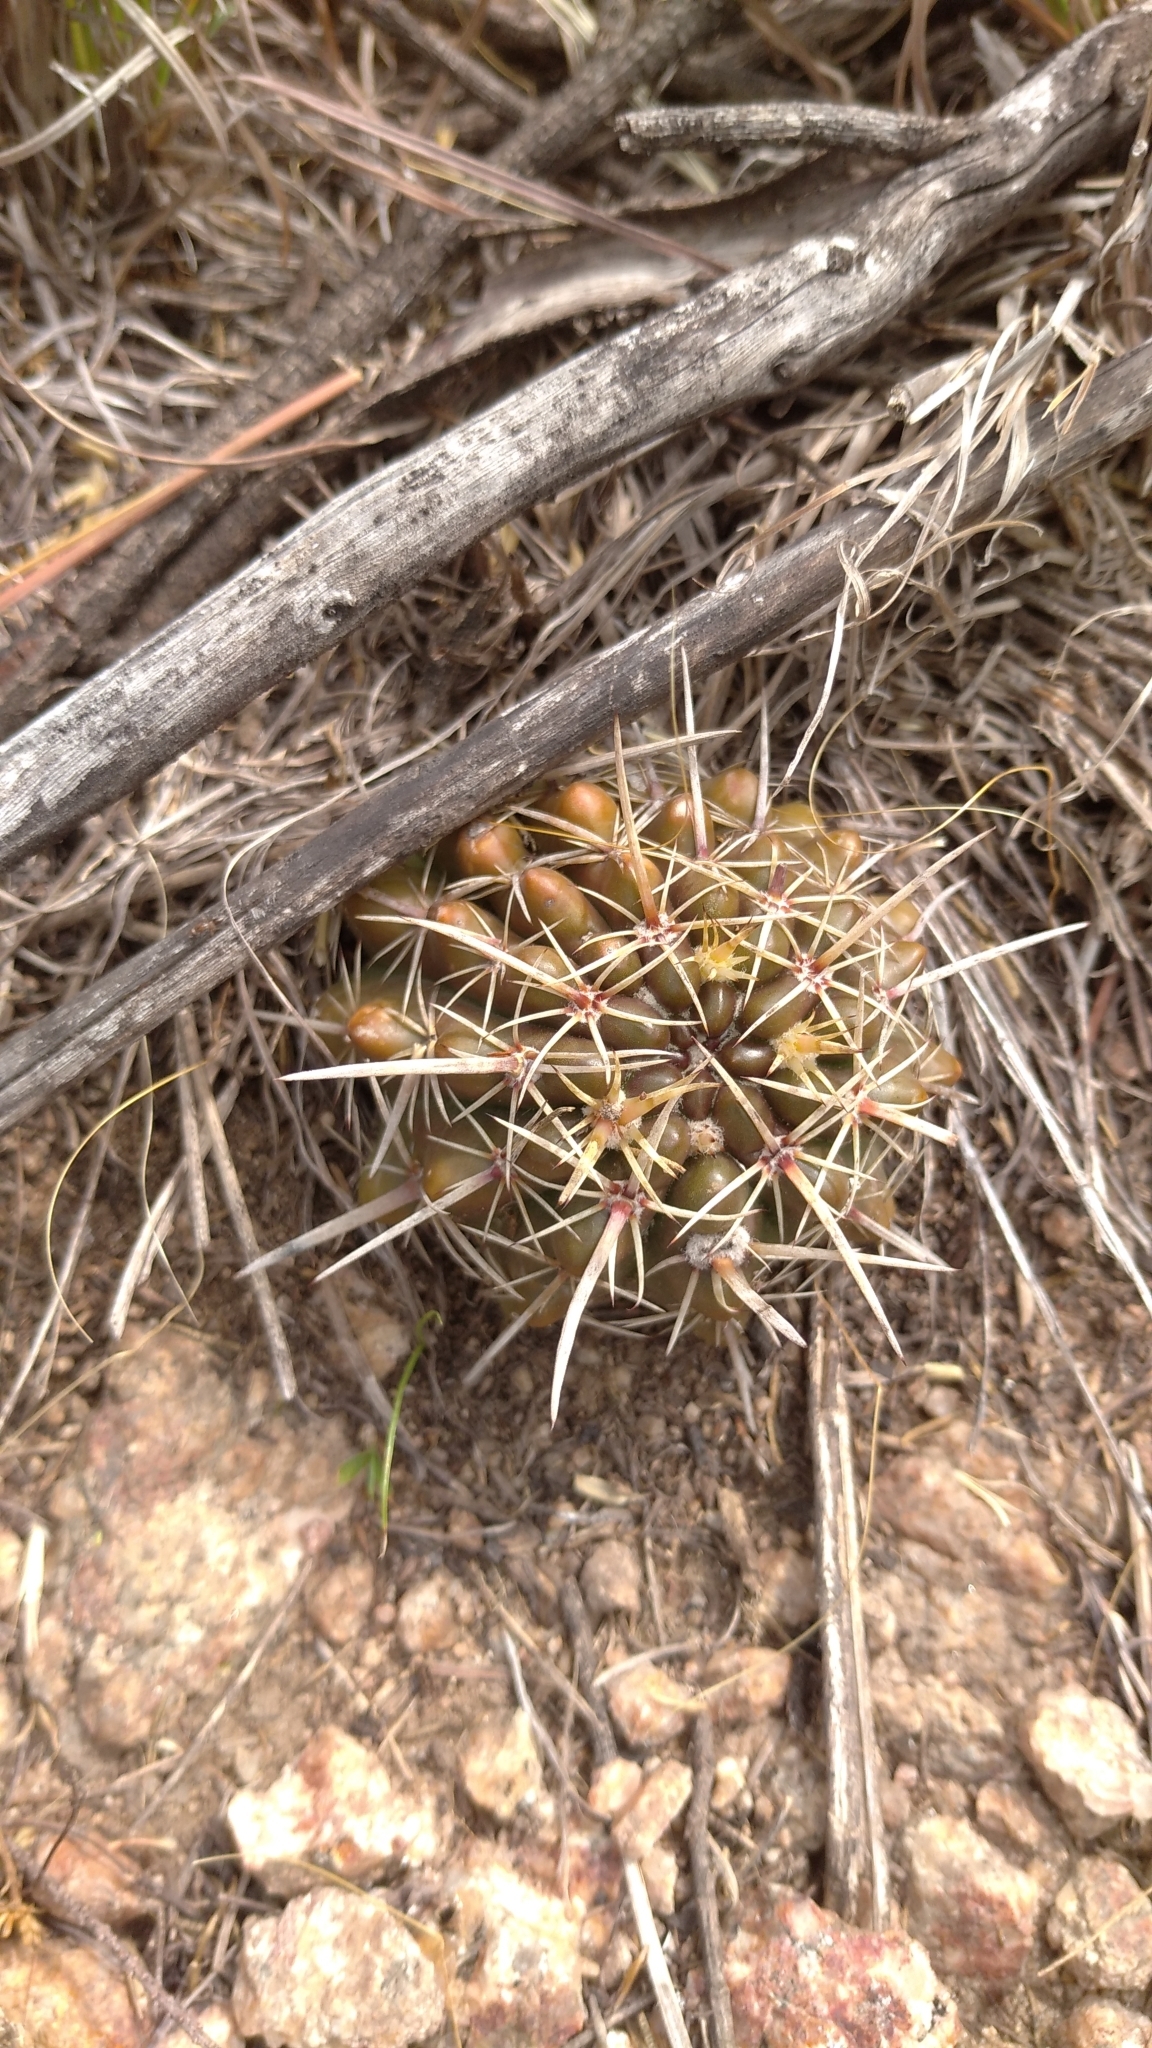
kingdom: Plantae
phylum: Tracheophyta
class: Magnoliopsida
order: Caryophyllales
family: Cactaceae
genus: Parodia
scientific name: Parodia mammulosa
